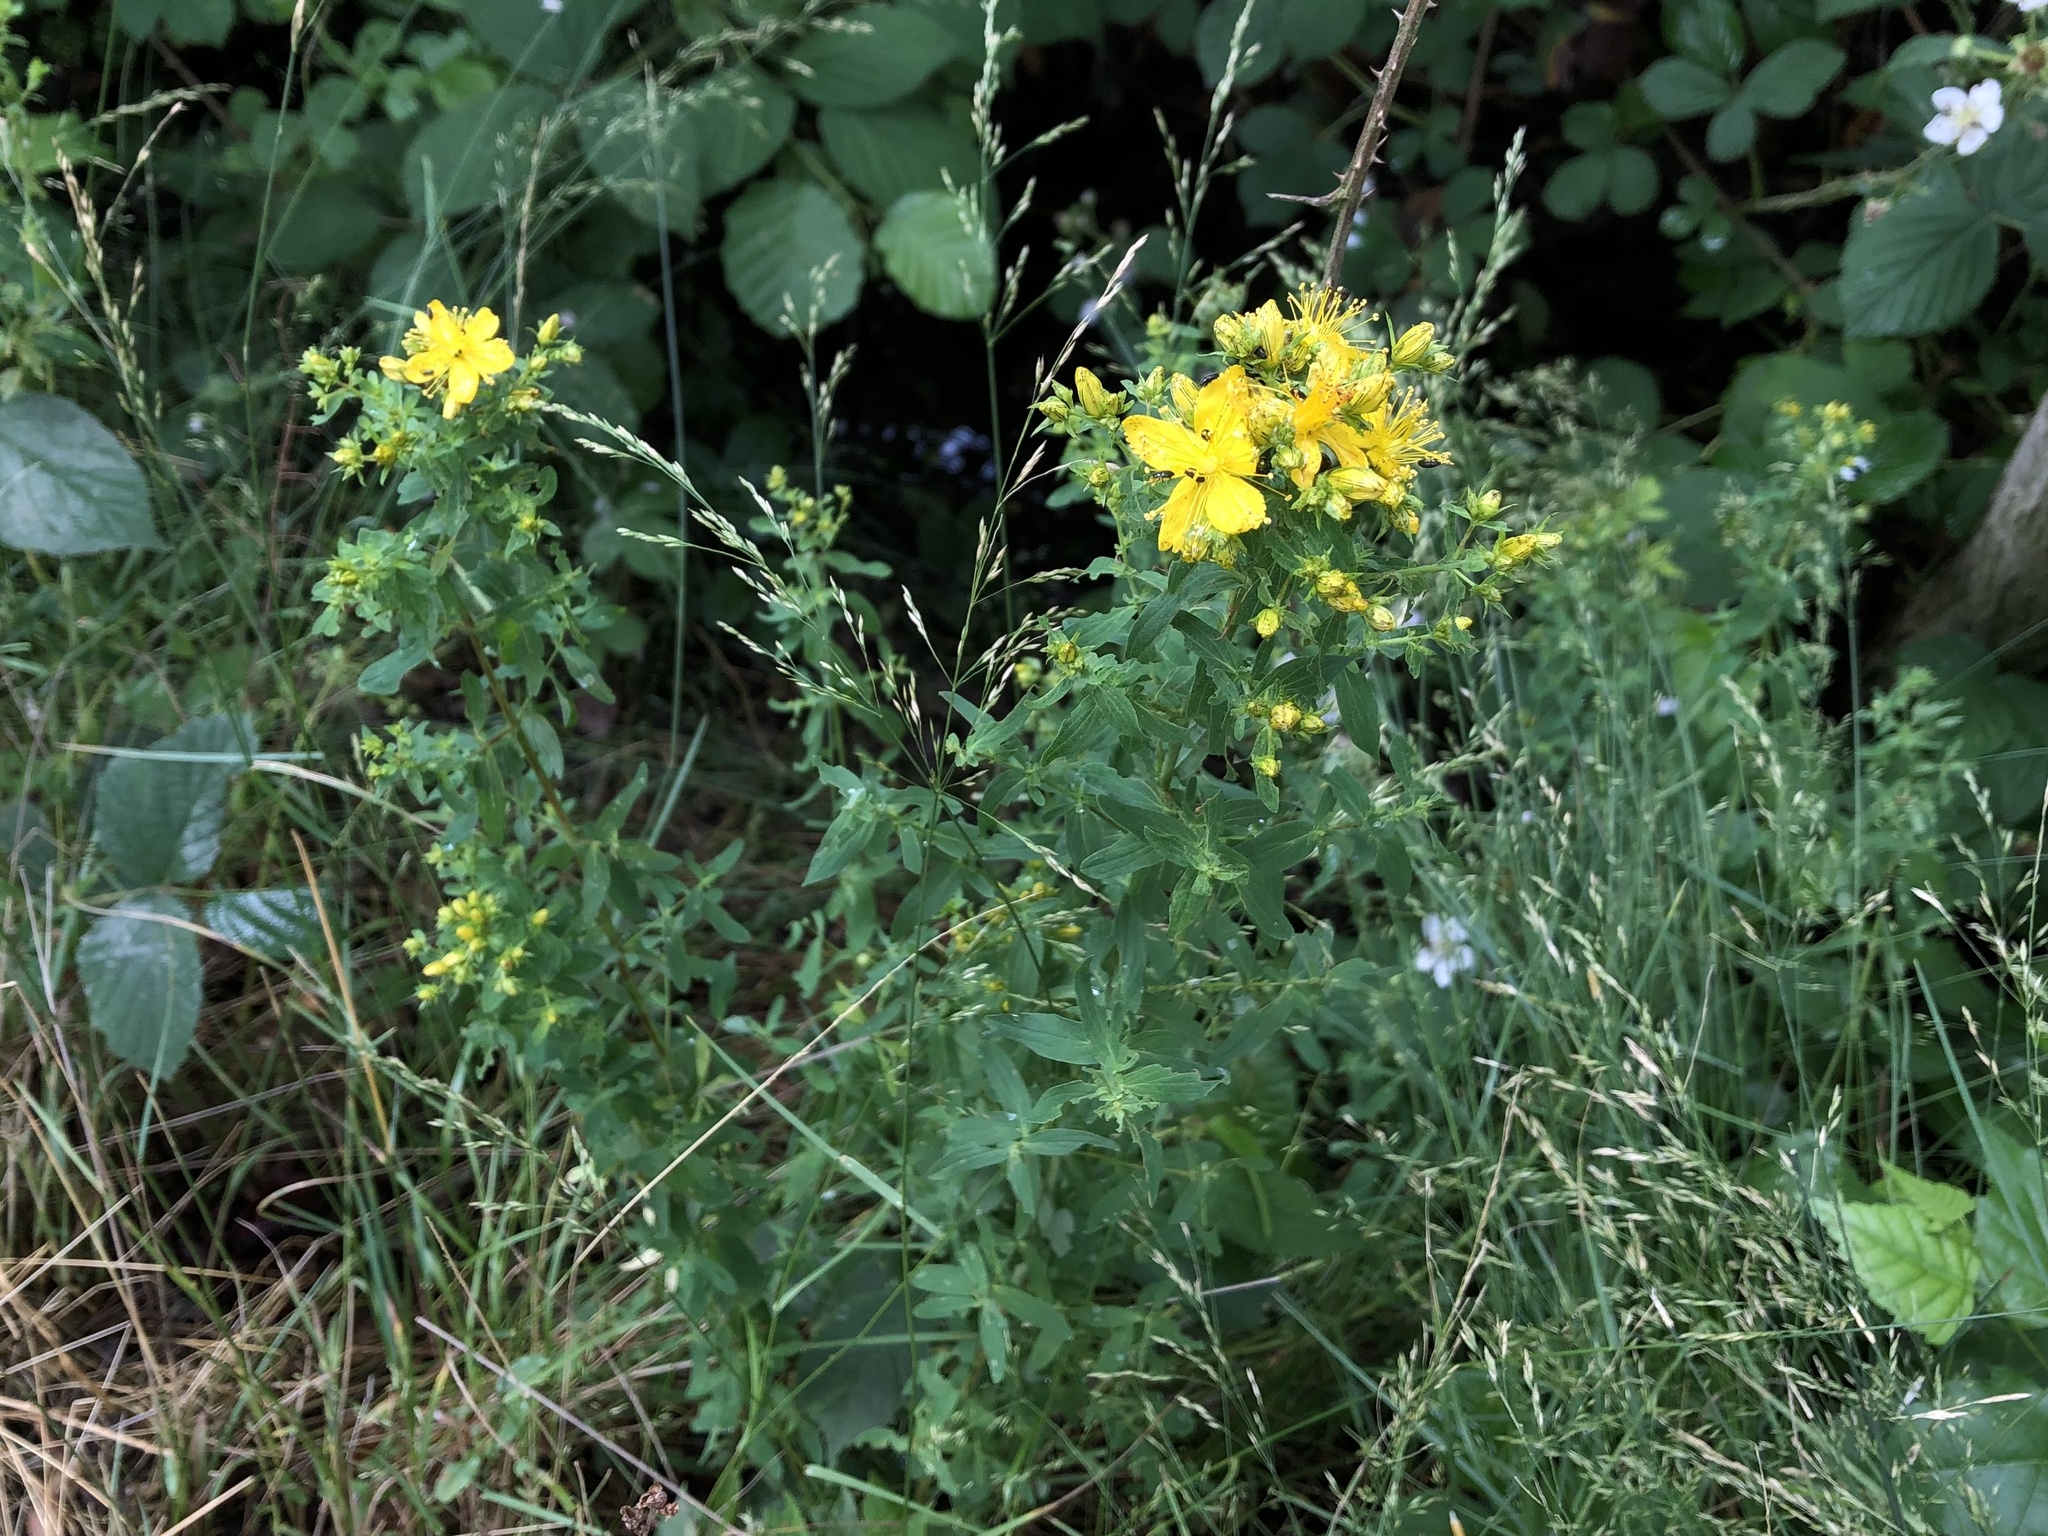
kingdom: Plantae
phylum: Tracheophyta
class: Magnoliopsida
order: Malpighiales
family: Hypericaceae
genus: Hypericum
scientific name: Hypericum perforatum
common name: Common st. johnswort
